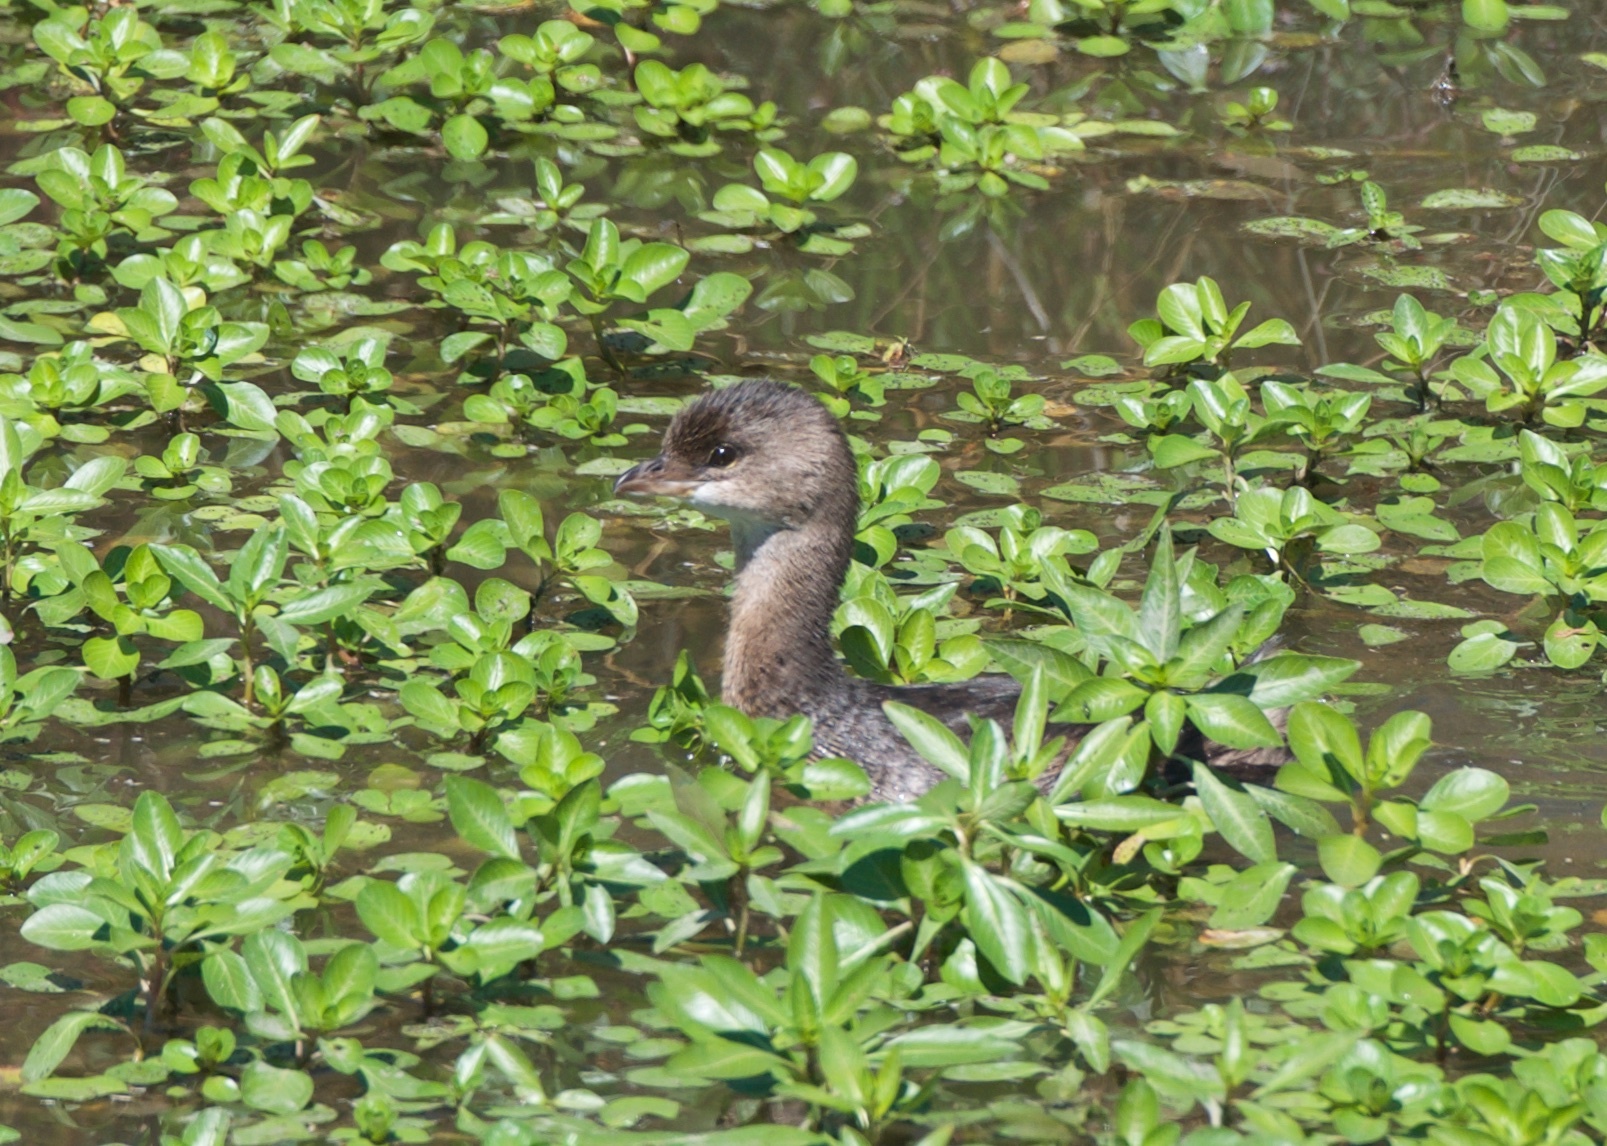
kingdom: Animalia
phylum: Chordata
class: Aves
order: Podicipediformes
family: Podicipedidae
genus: Podilymbus
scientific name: Podilymbus podiceps
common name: Pied-billed grebe
